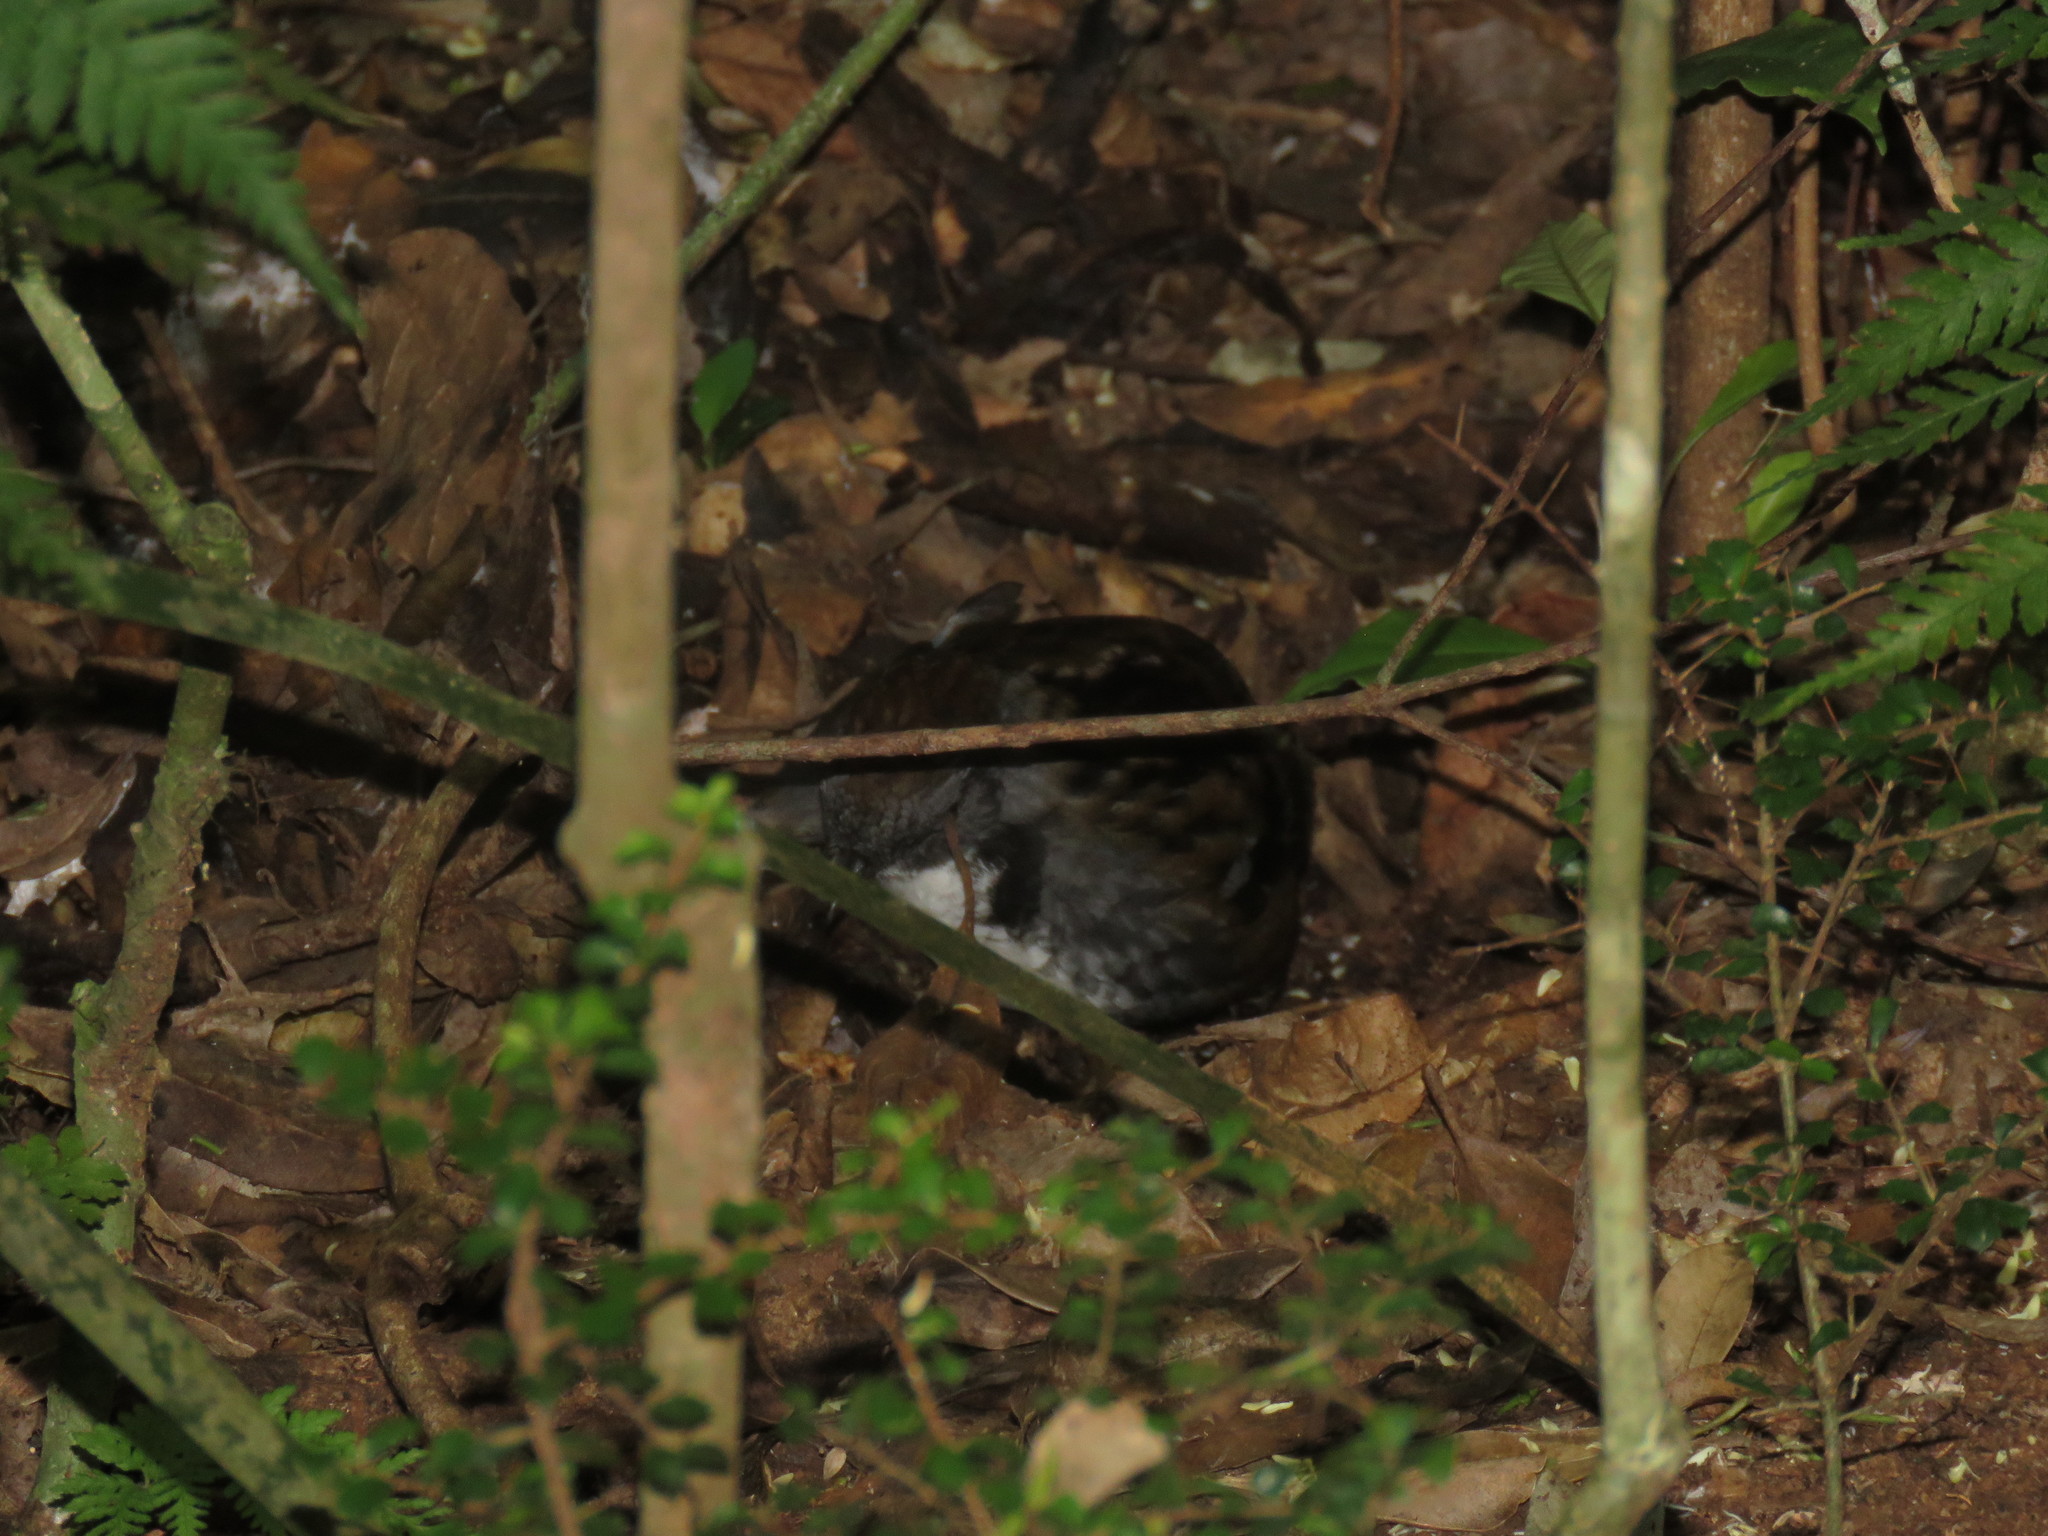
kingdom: Animalia
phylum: Chordata
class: Aves
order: Passeriformes
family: Orthonychidae
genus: Orthonyx
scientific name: Orthonyx temminckii
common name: Australian logrunner
